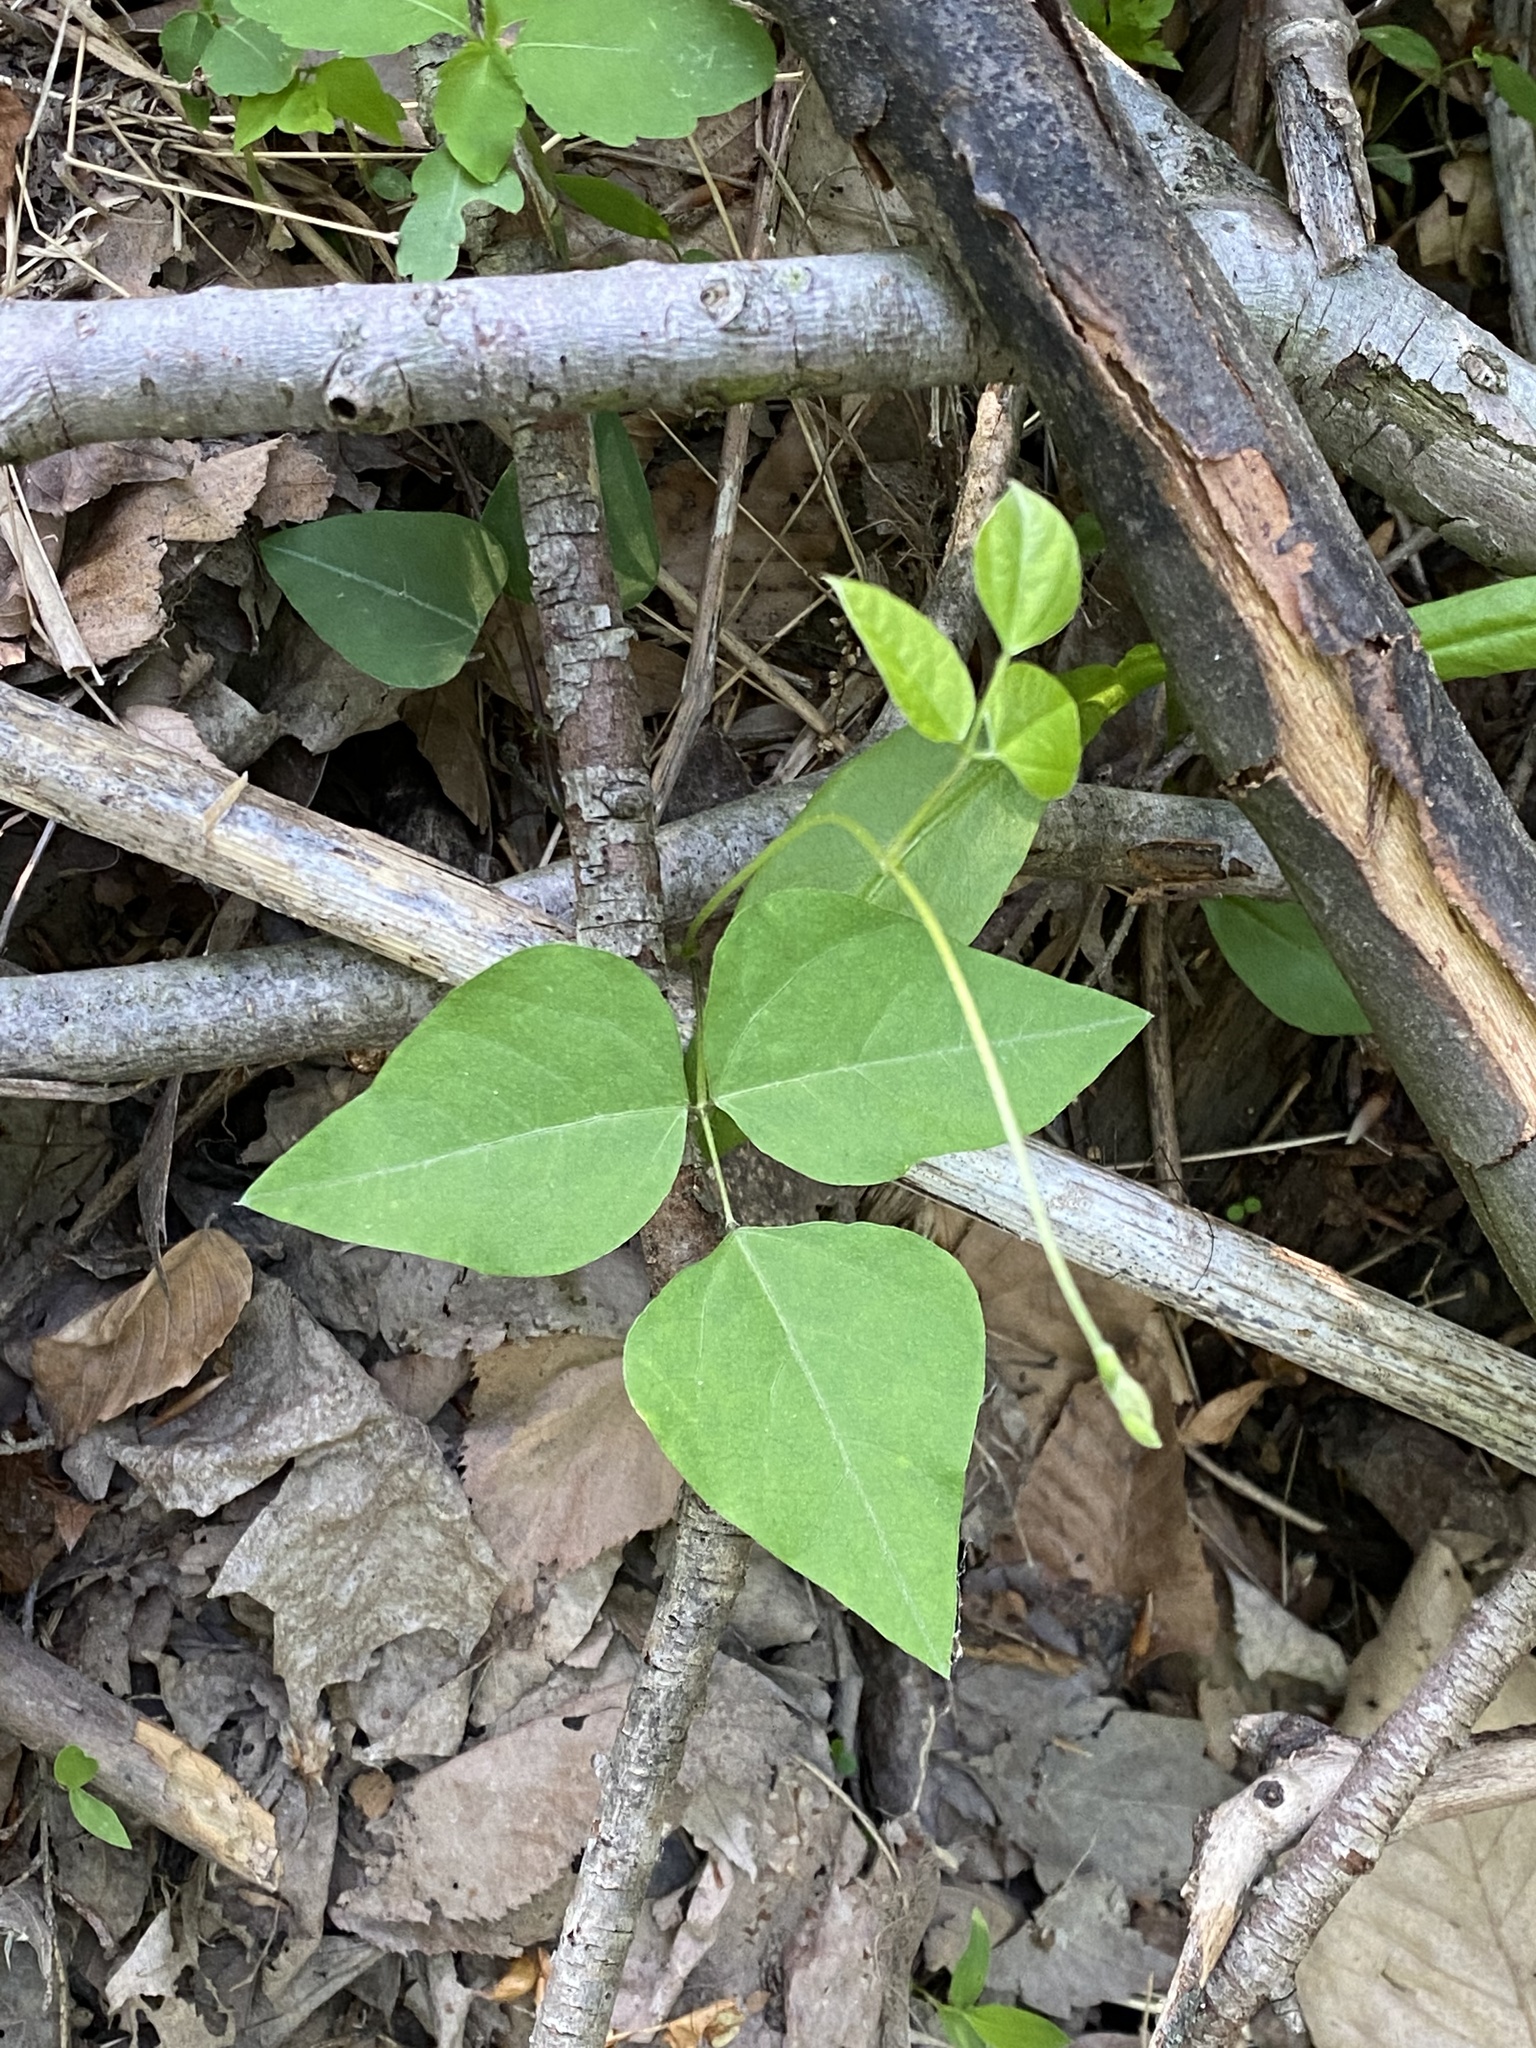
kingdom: Plantae
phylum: Tracheophyta
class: Magnoliopsida
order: Fabales
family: Fabaceae
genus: Amphicarpaea
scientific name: Amphicarpaea bracteata
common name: American hog peanut
